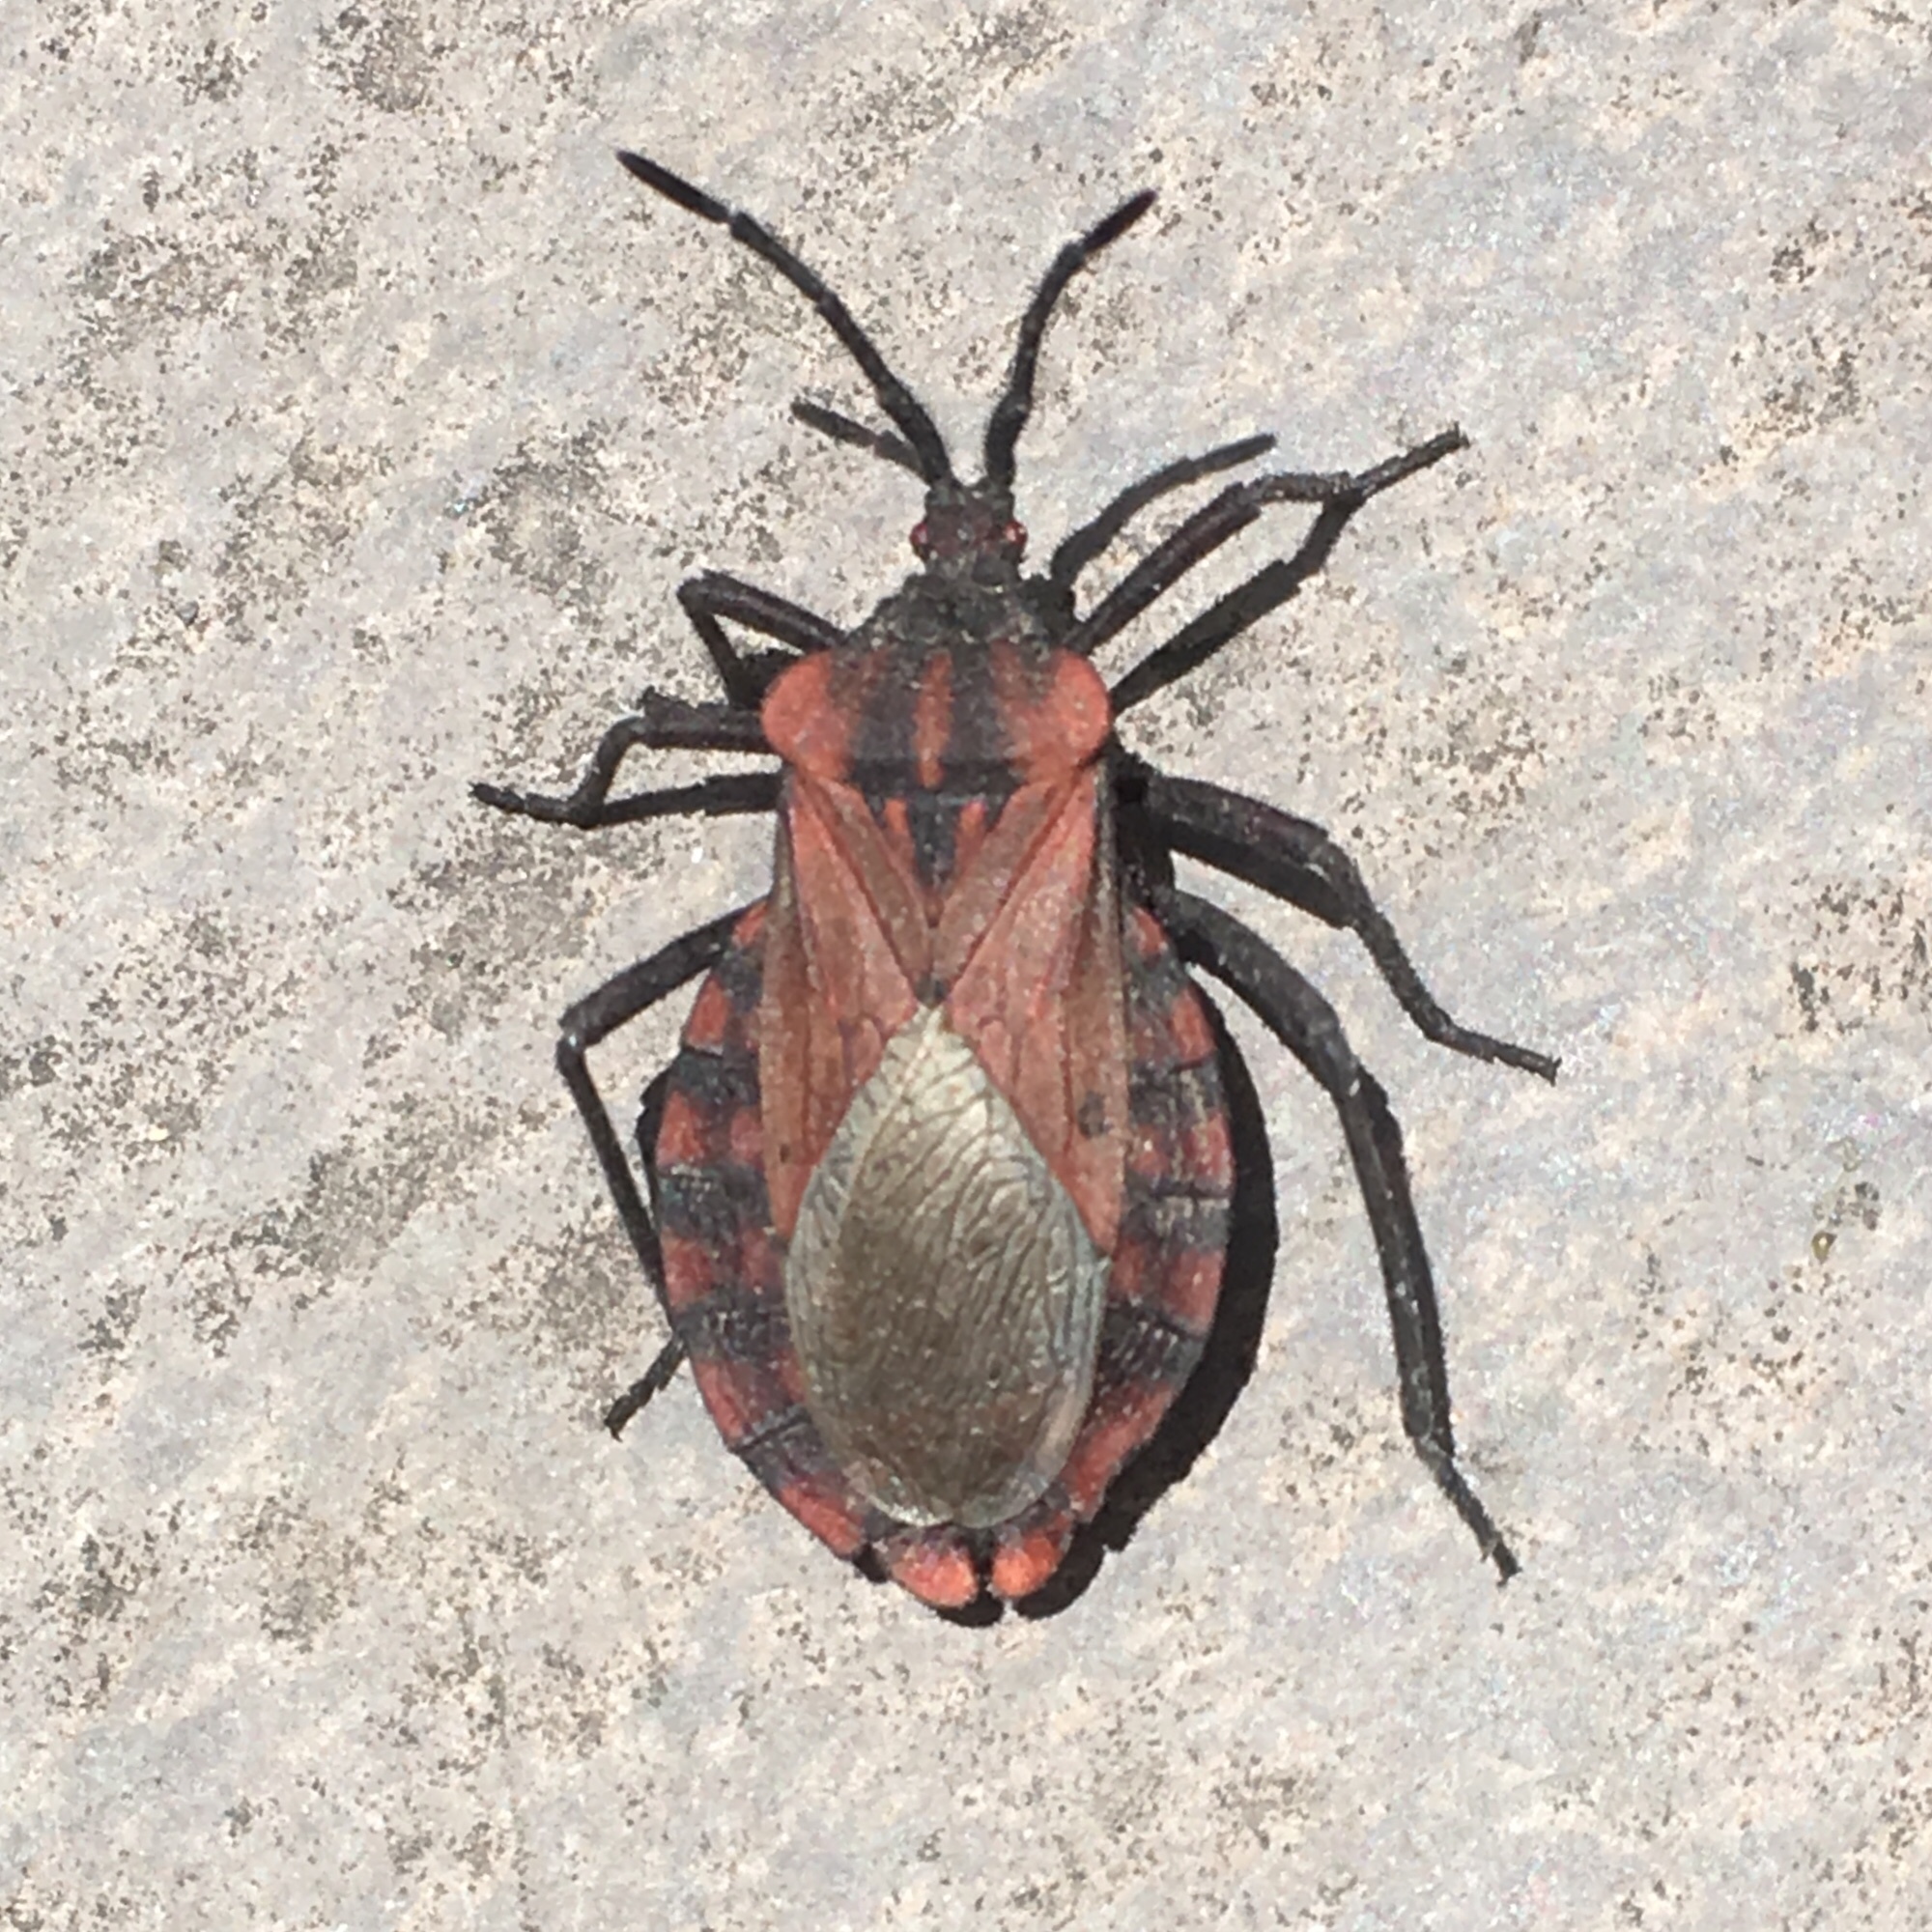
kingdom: Animalia
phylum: Arthropoda
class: Insecta
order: Hemiptera
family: Coreidae
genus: Spartocera
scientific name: Spartocera fusca
